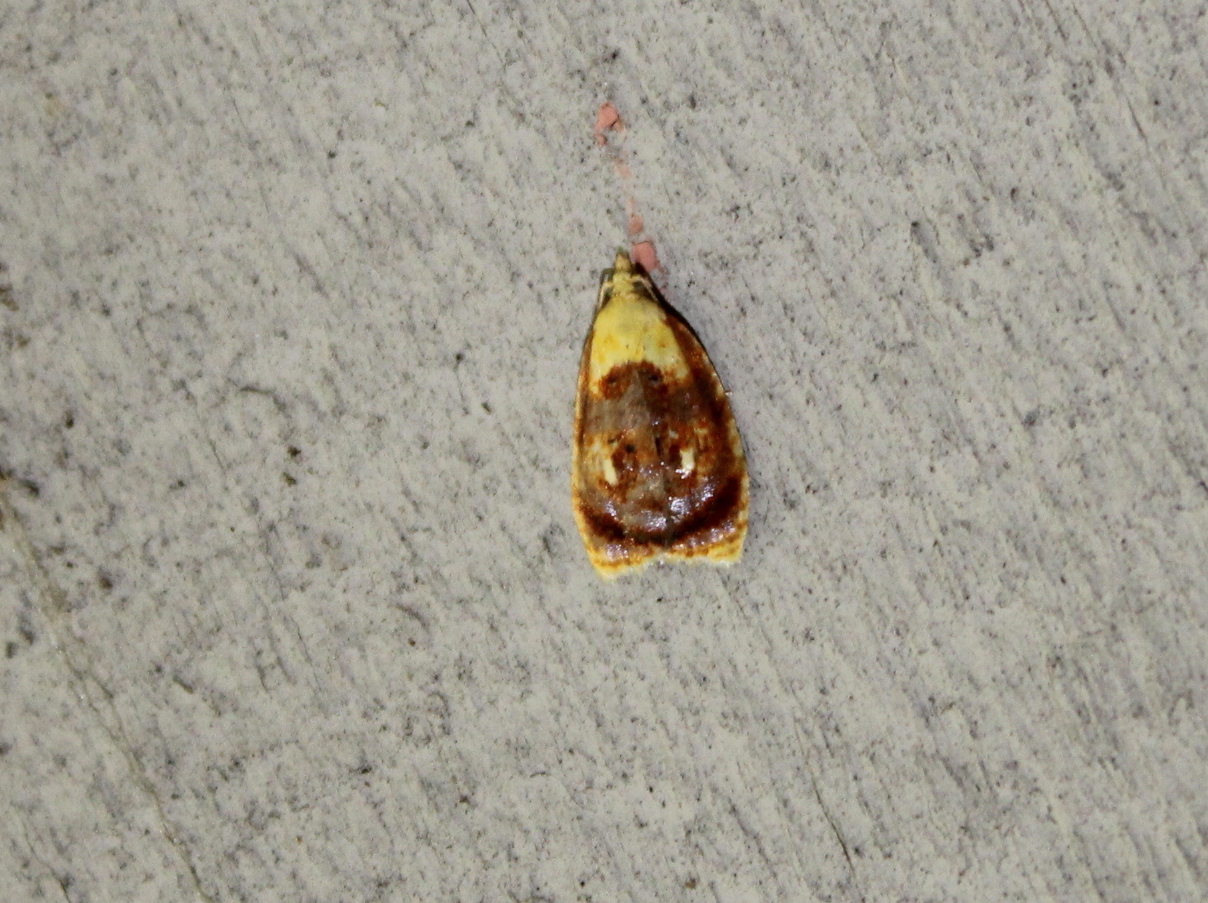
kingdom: Animalia
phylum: Arthropoda
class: Insecta
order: Lepidoptera
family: Tortricidae
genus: Acleris
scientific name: Acleris curvalana
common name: Blueberry leaftier moth
